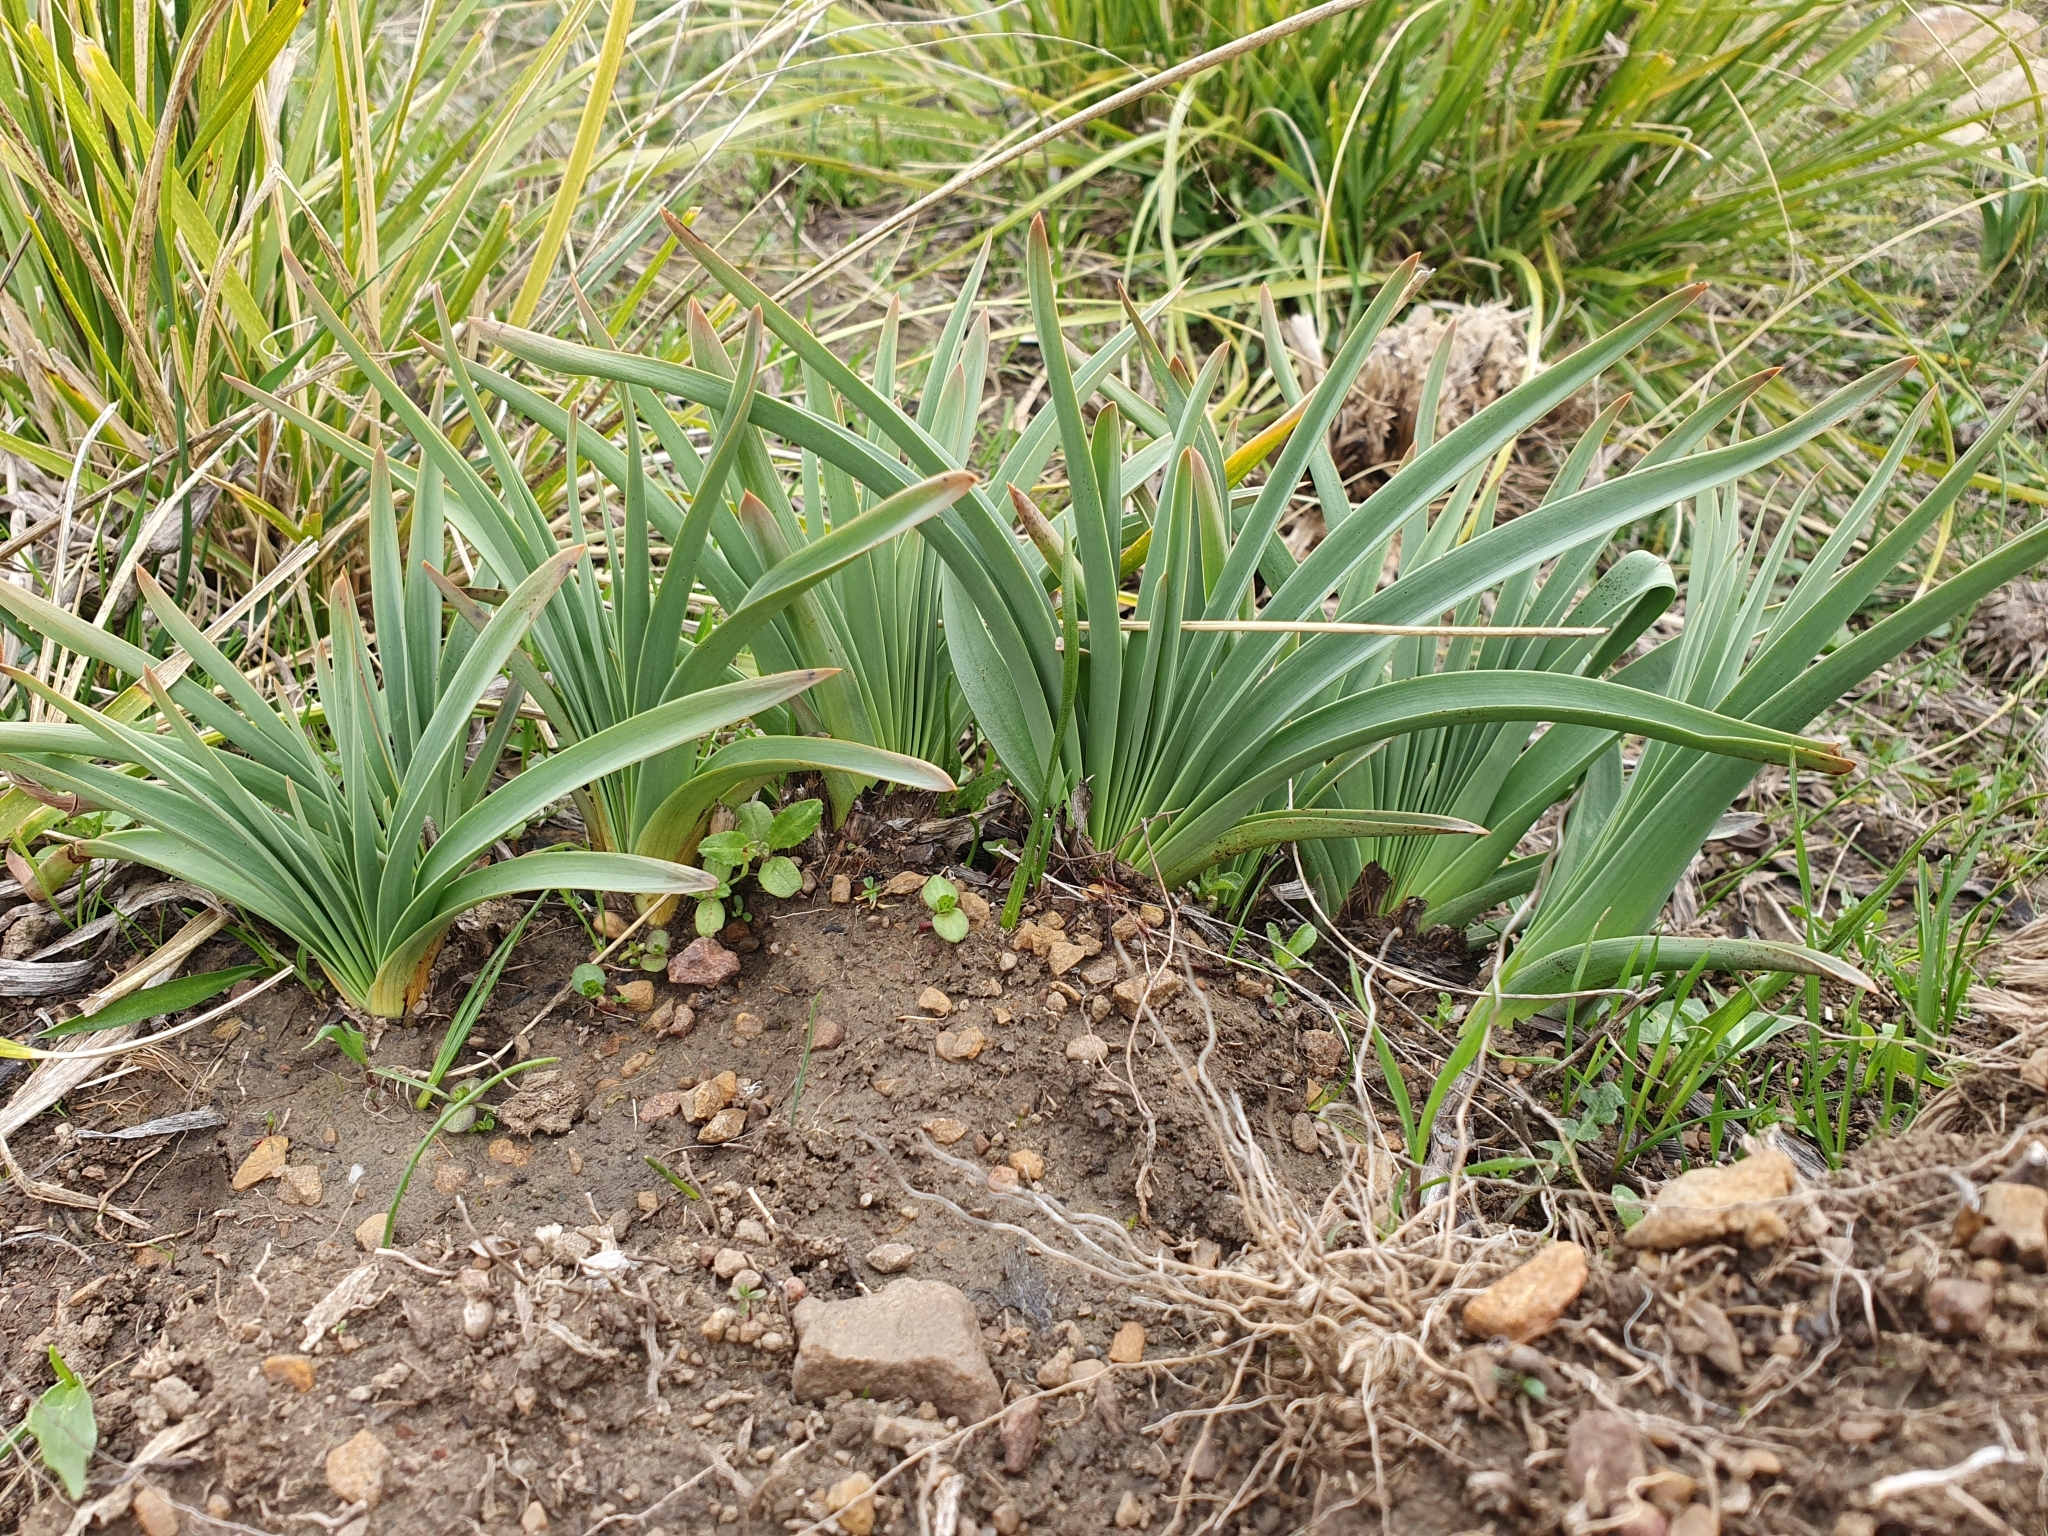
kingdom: Plantae
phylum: Tracheophyta
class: Liliopsida
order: Asparagales
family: Asphodelaceae
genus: Asphodelus
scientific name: Asphodelus ramosus
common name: Silverrod
